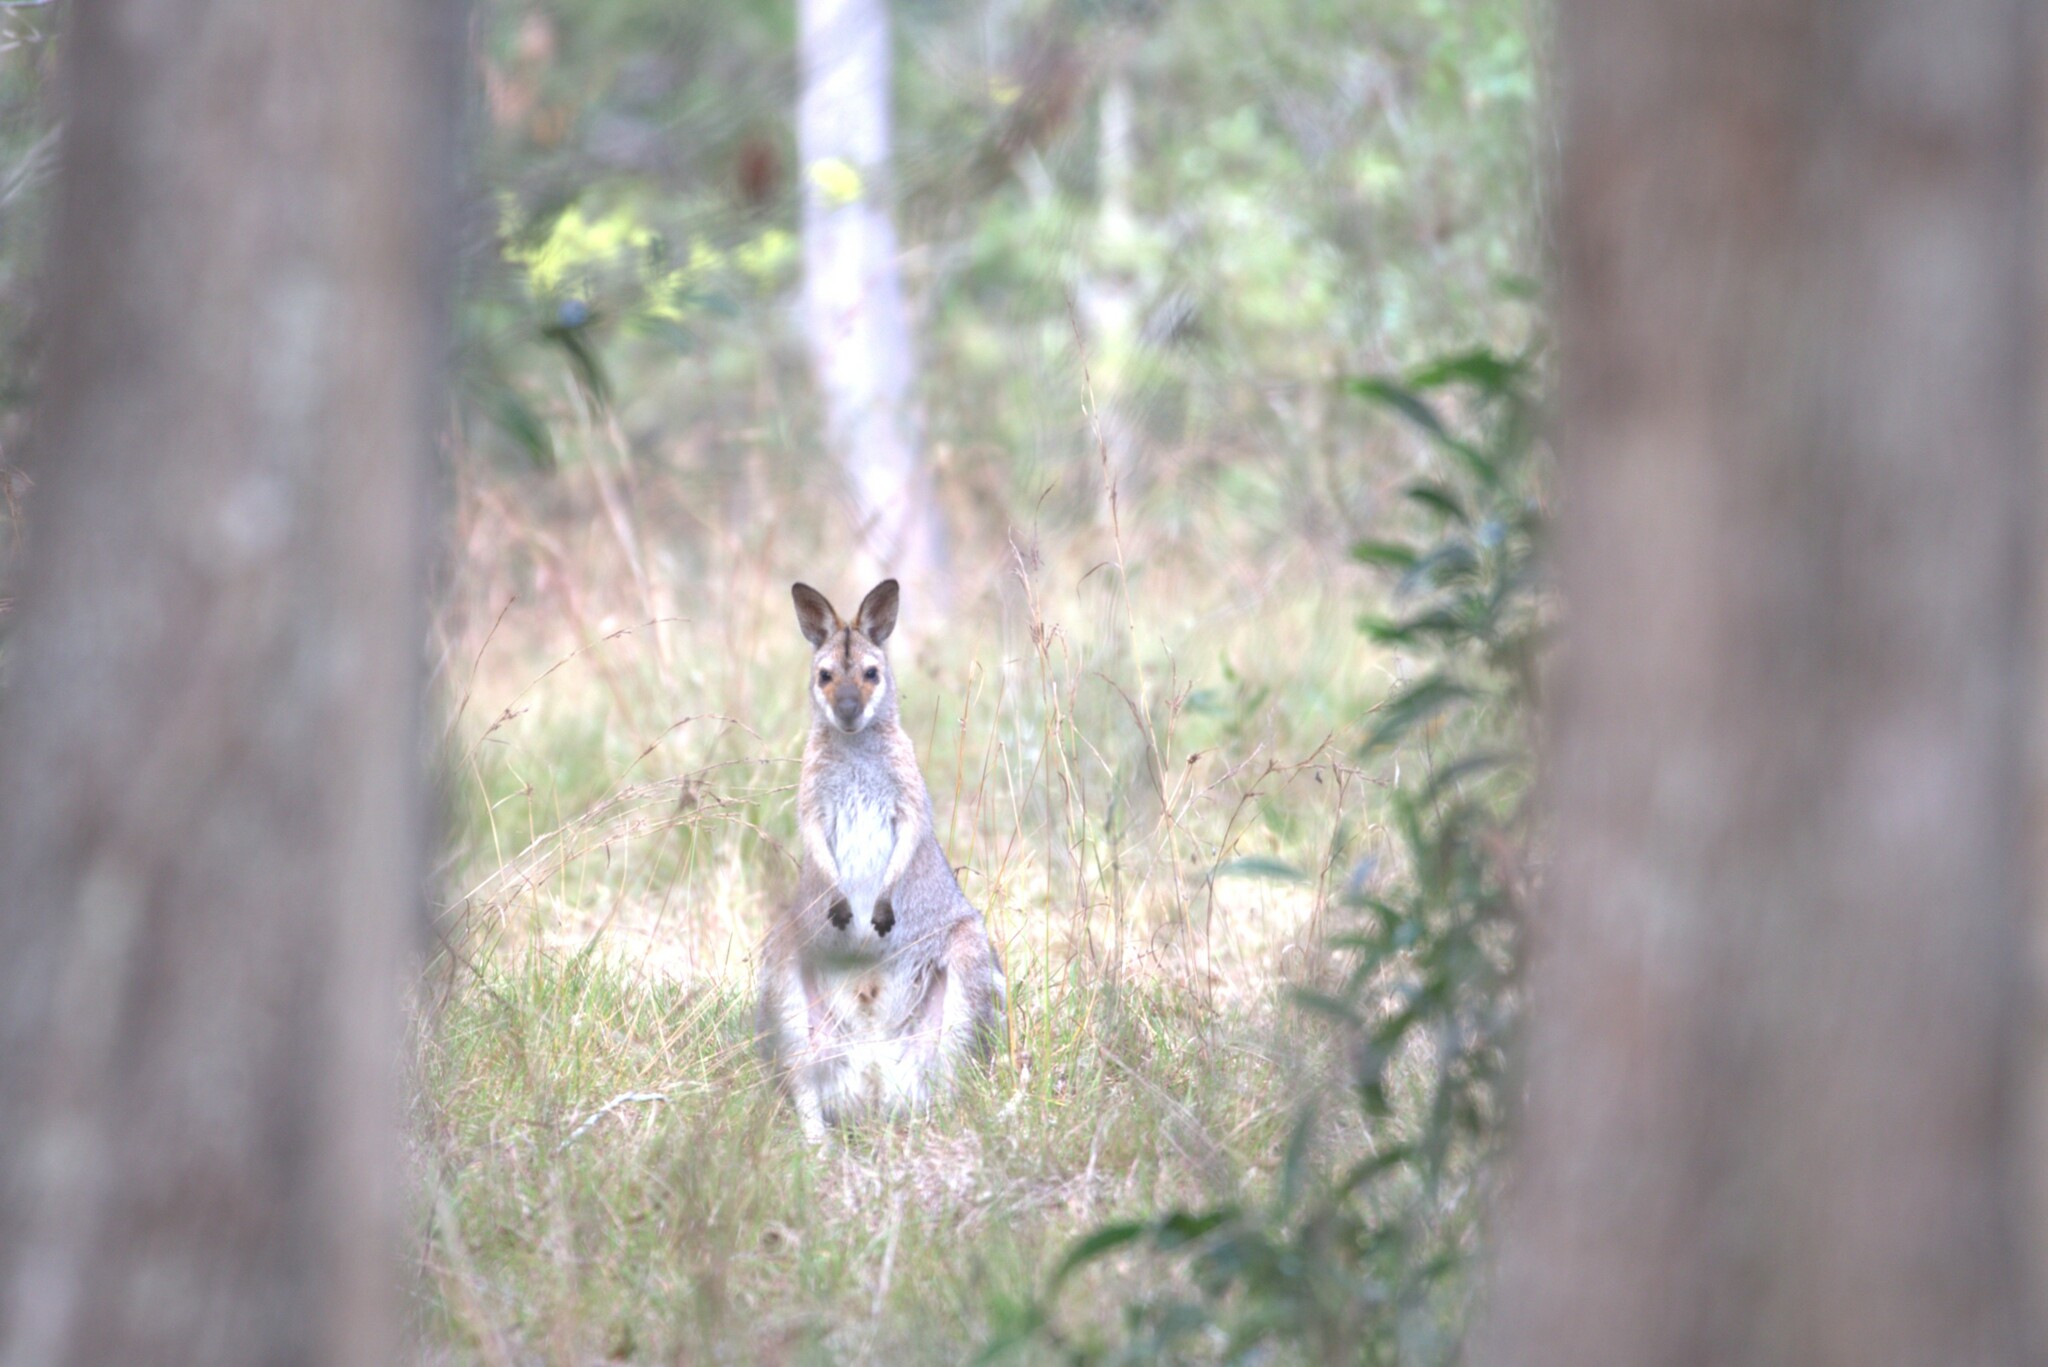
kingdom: Animalia
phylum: Chordata
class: Mammalia
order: Diprotodontia
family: Macropodidae
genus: Notamacropus
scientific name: Notamacropus rufogriseus
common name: Red-necked wallaby
